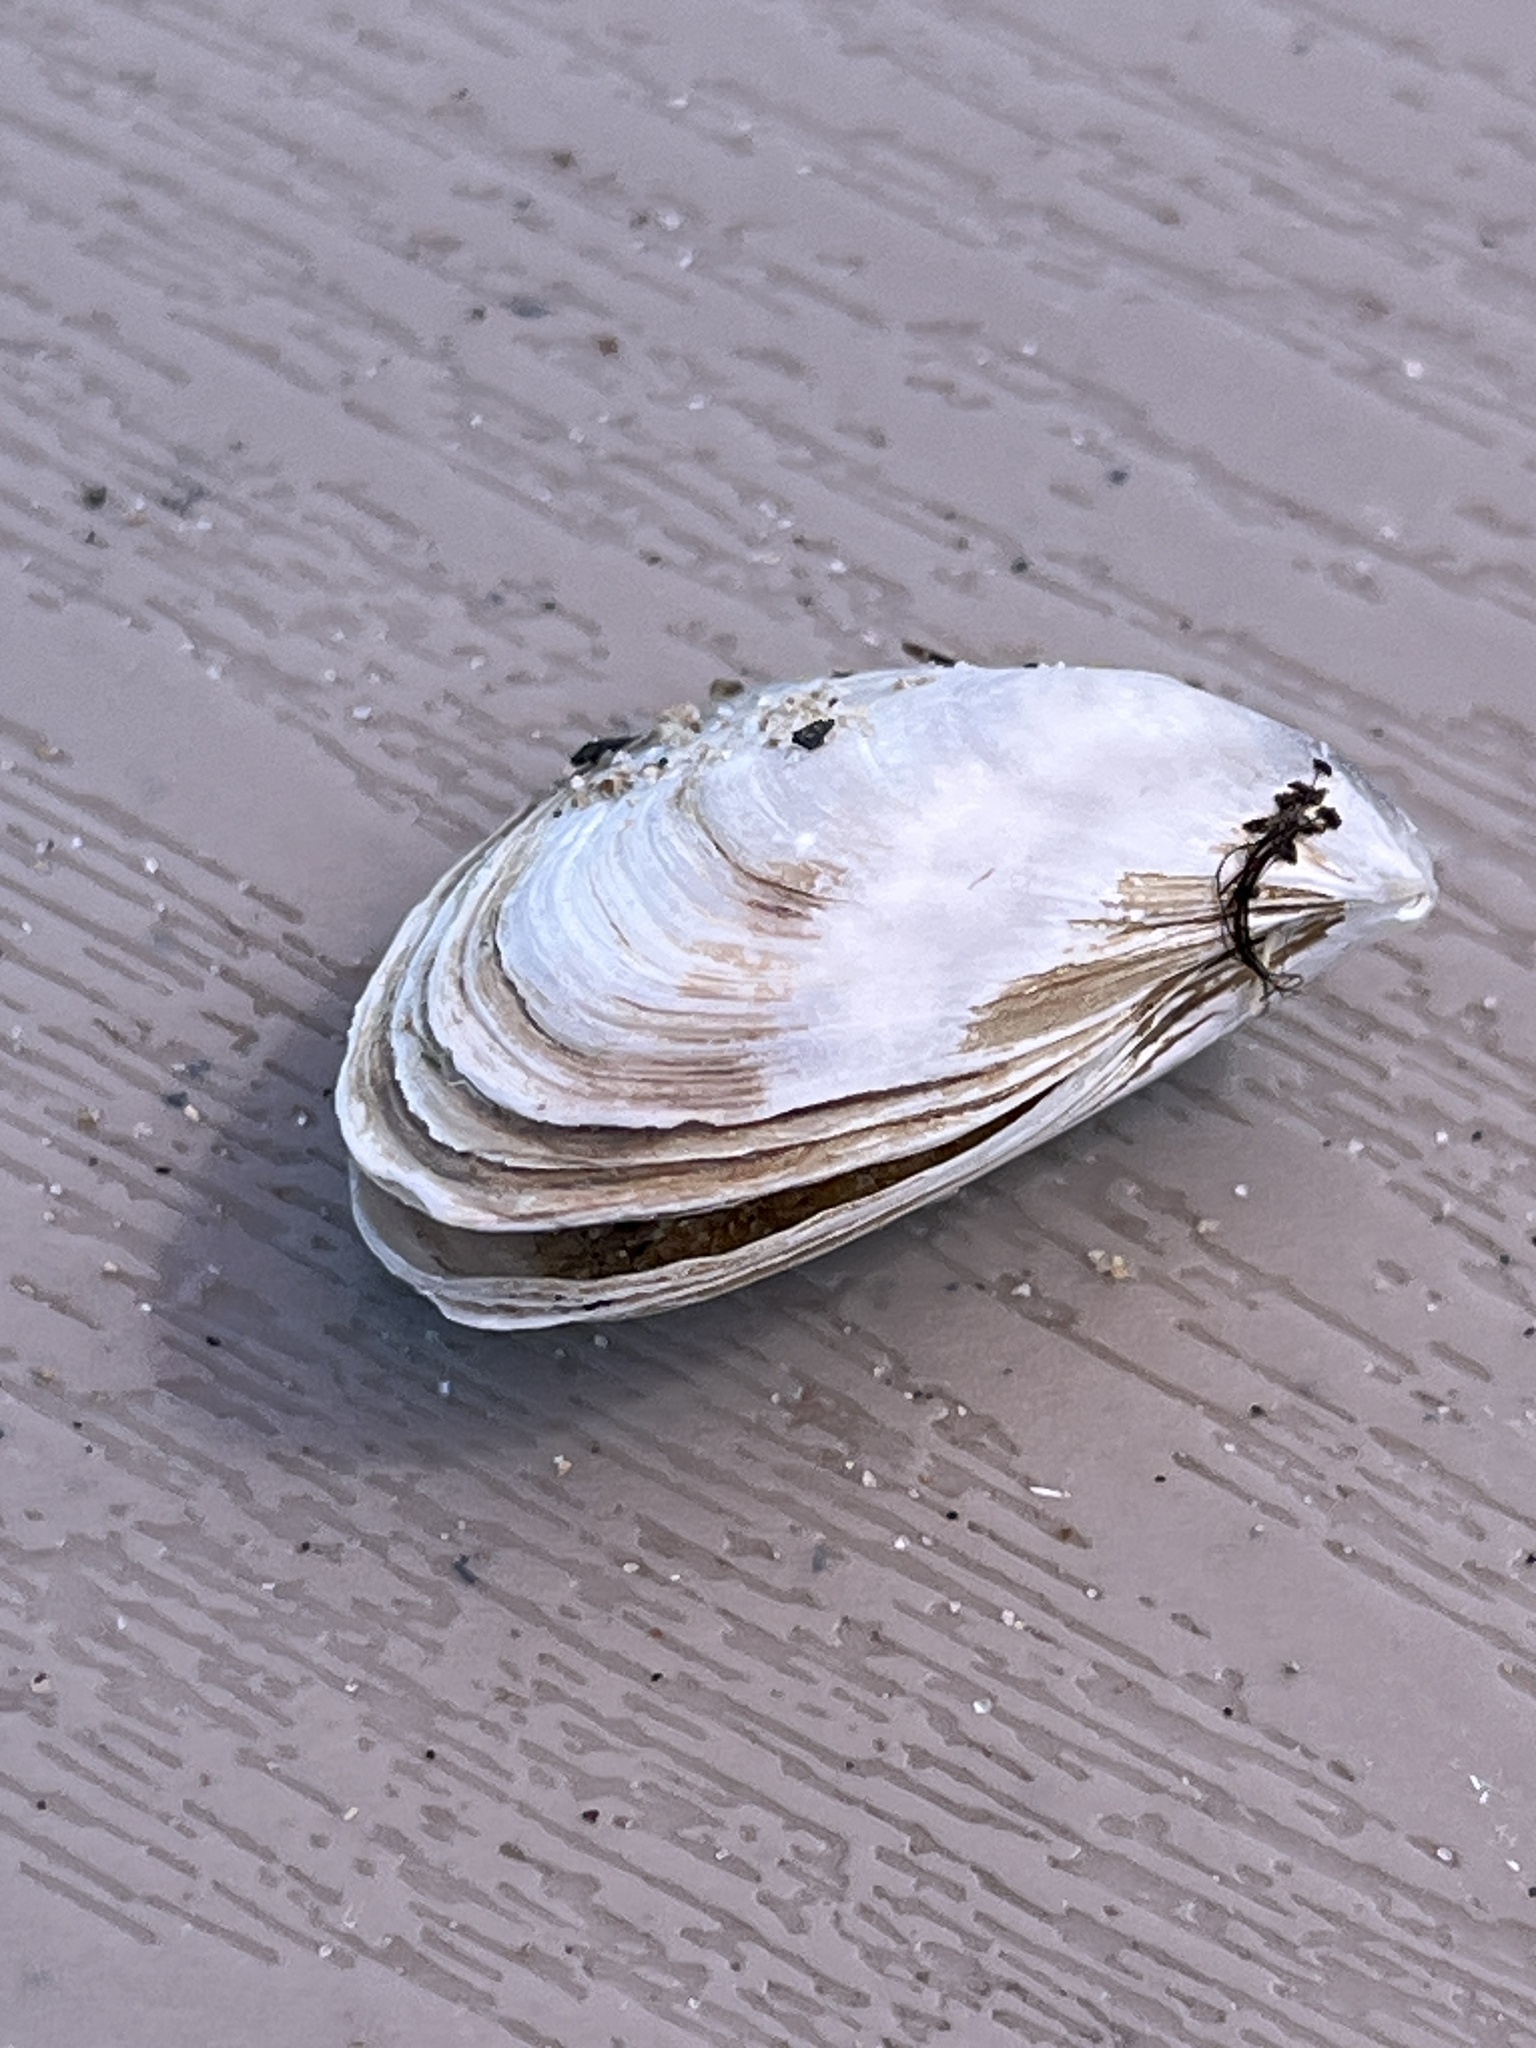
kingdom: Animalia
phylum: Mollusca
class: Bivalvia
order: Myida
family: Dreissenidae
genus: Dreissena
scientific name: Dreissena bugensis
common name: Quagga mussel
